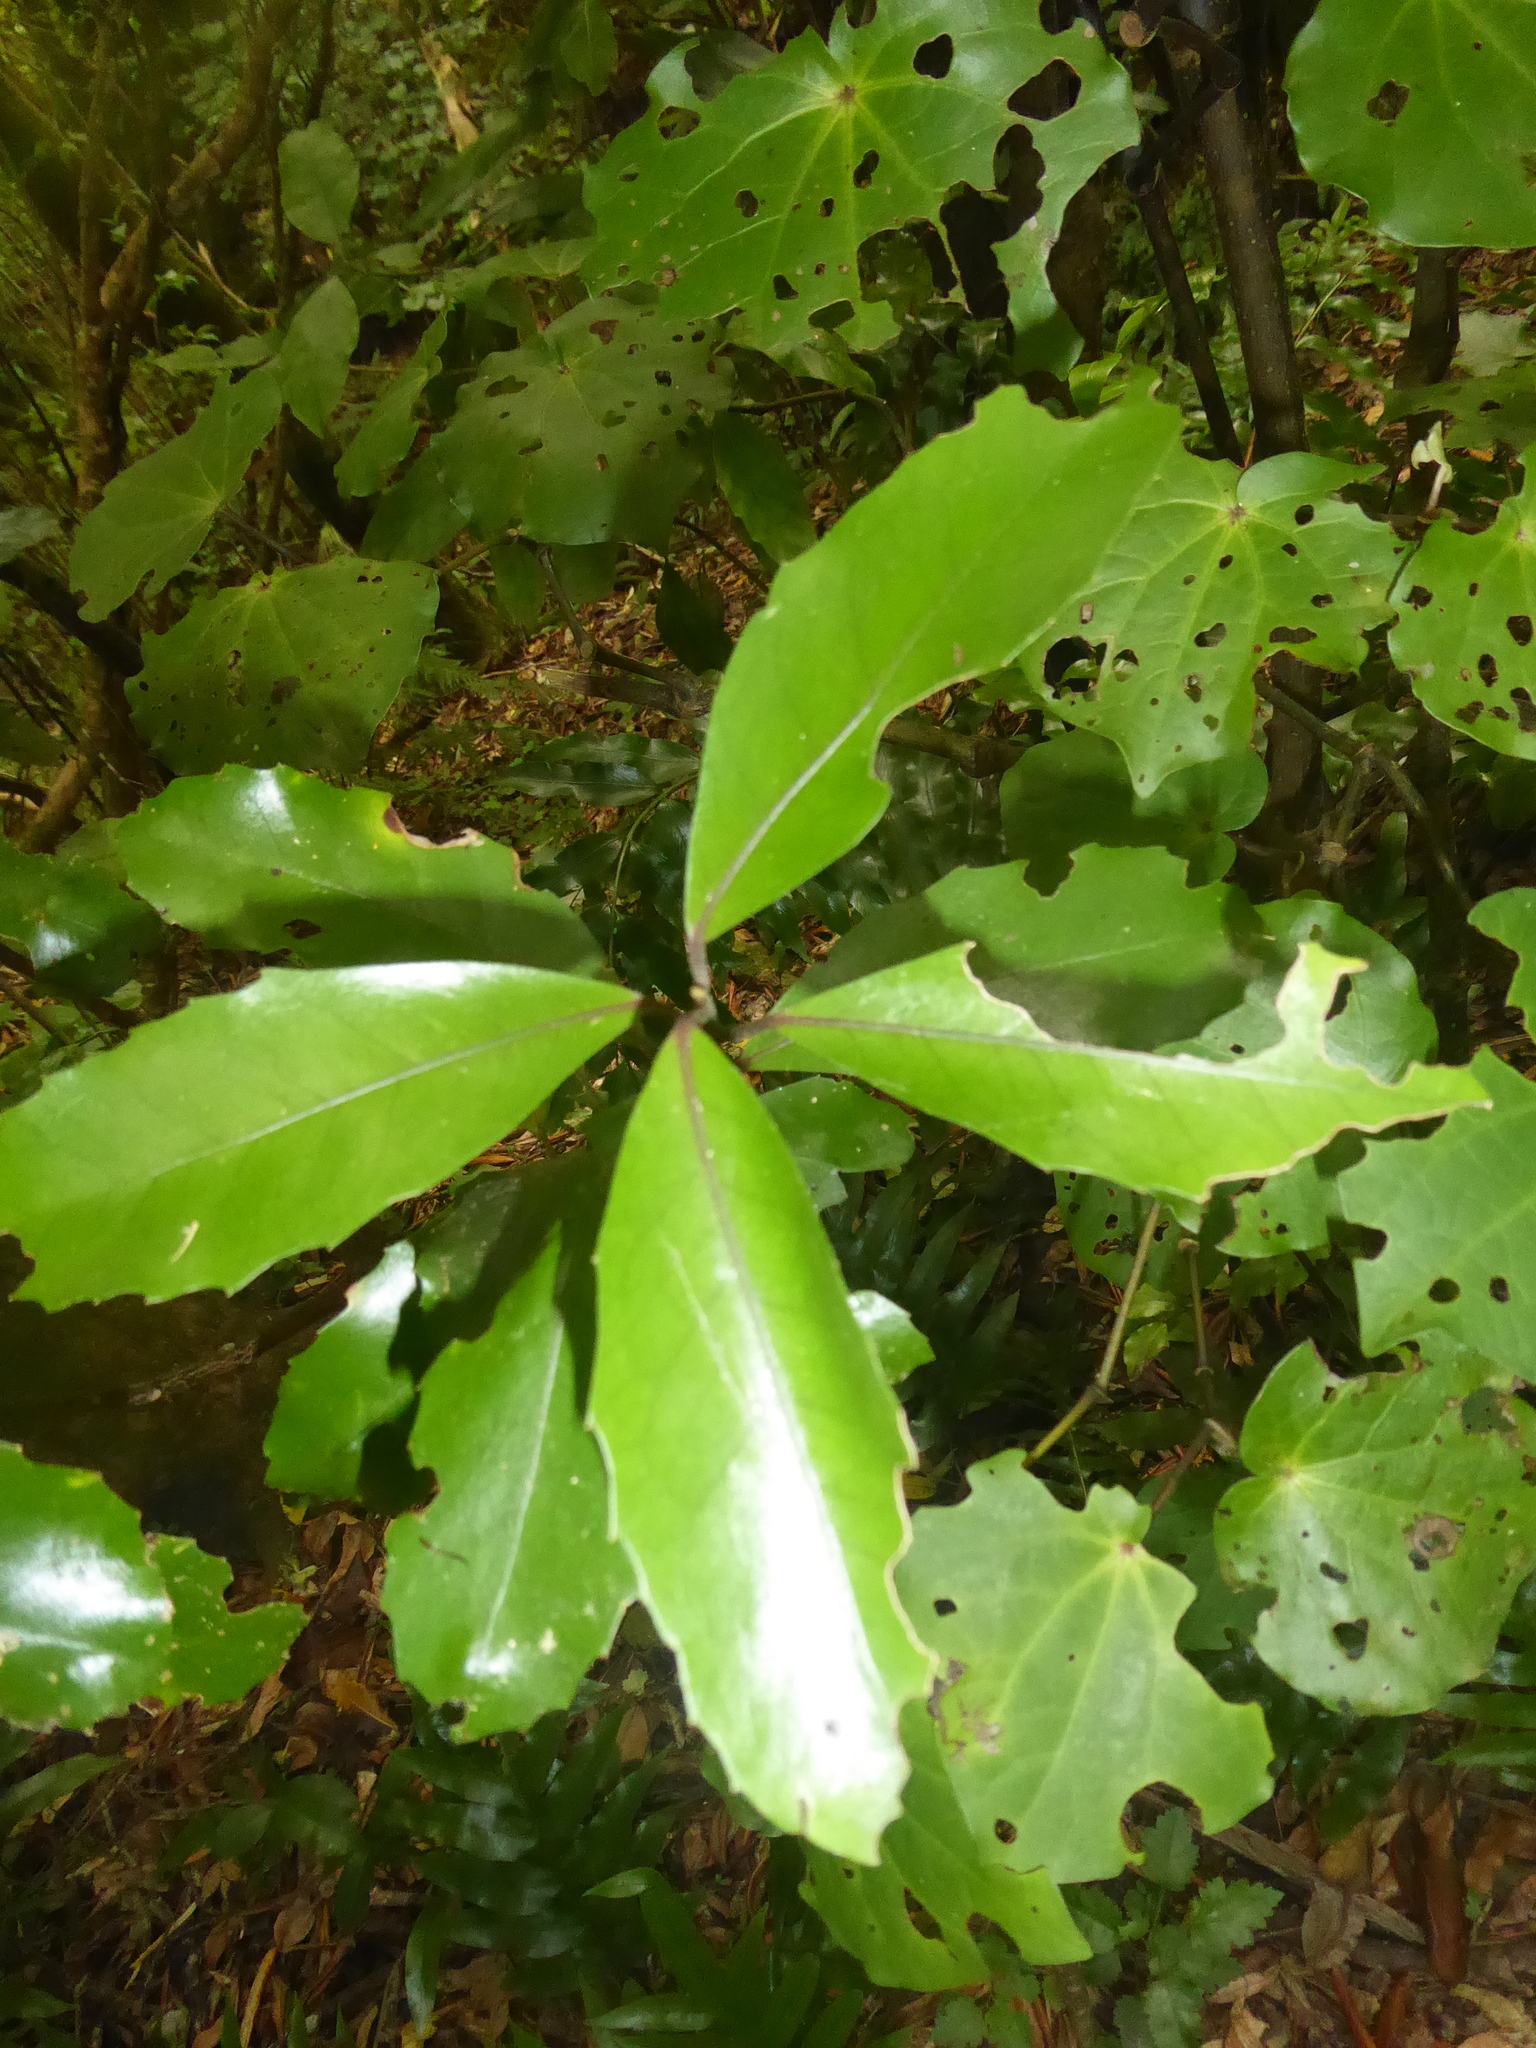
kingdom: Plantae
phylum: Tracheophyta
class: Magnoliopsida
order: Laurales
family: Monimiaceae
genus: Hedycarya
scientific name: Hedycarya arborea
